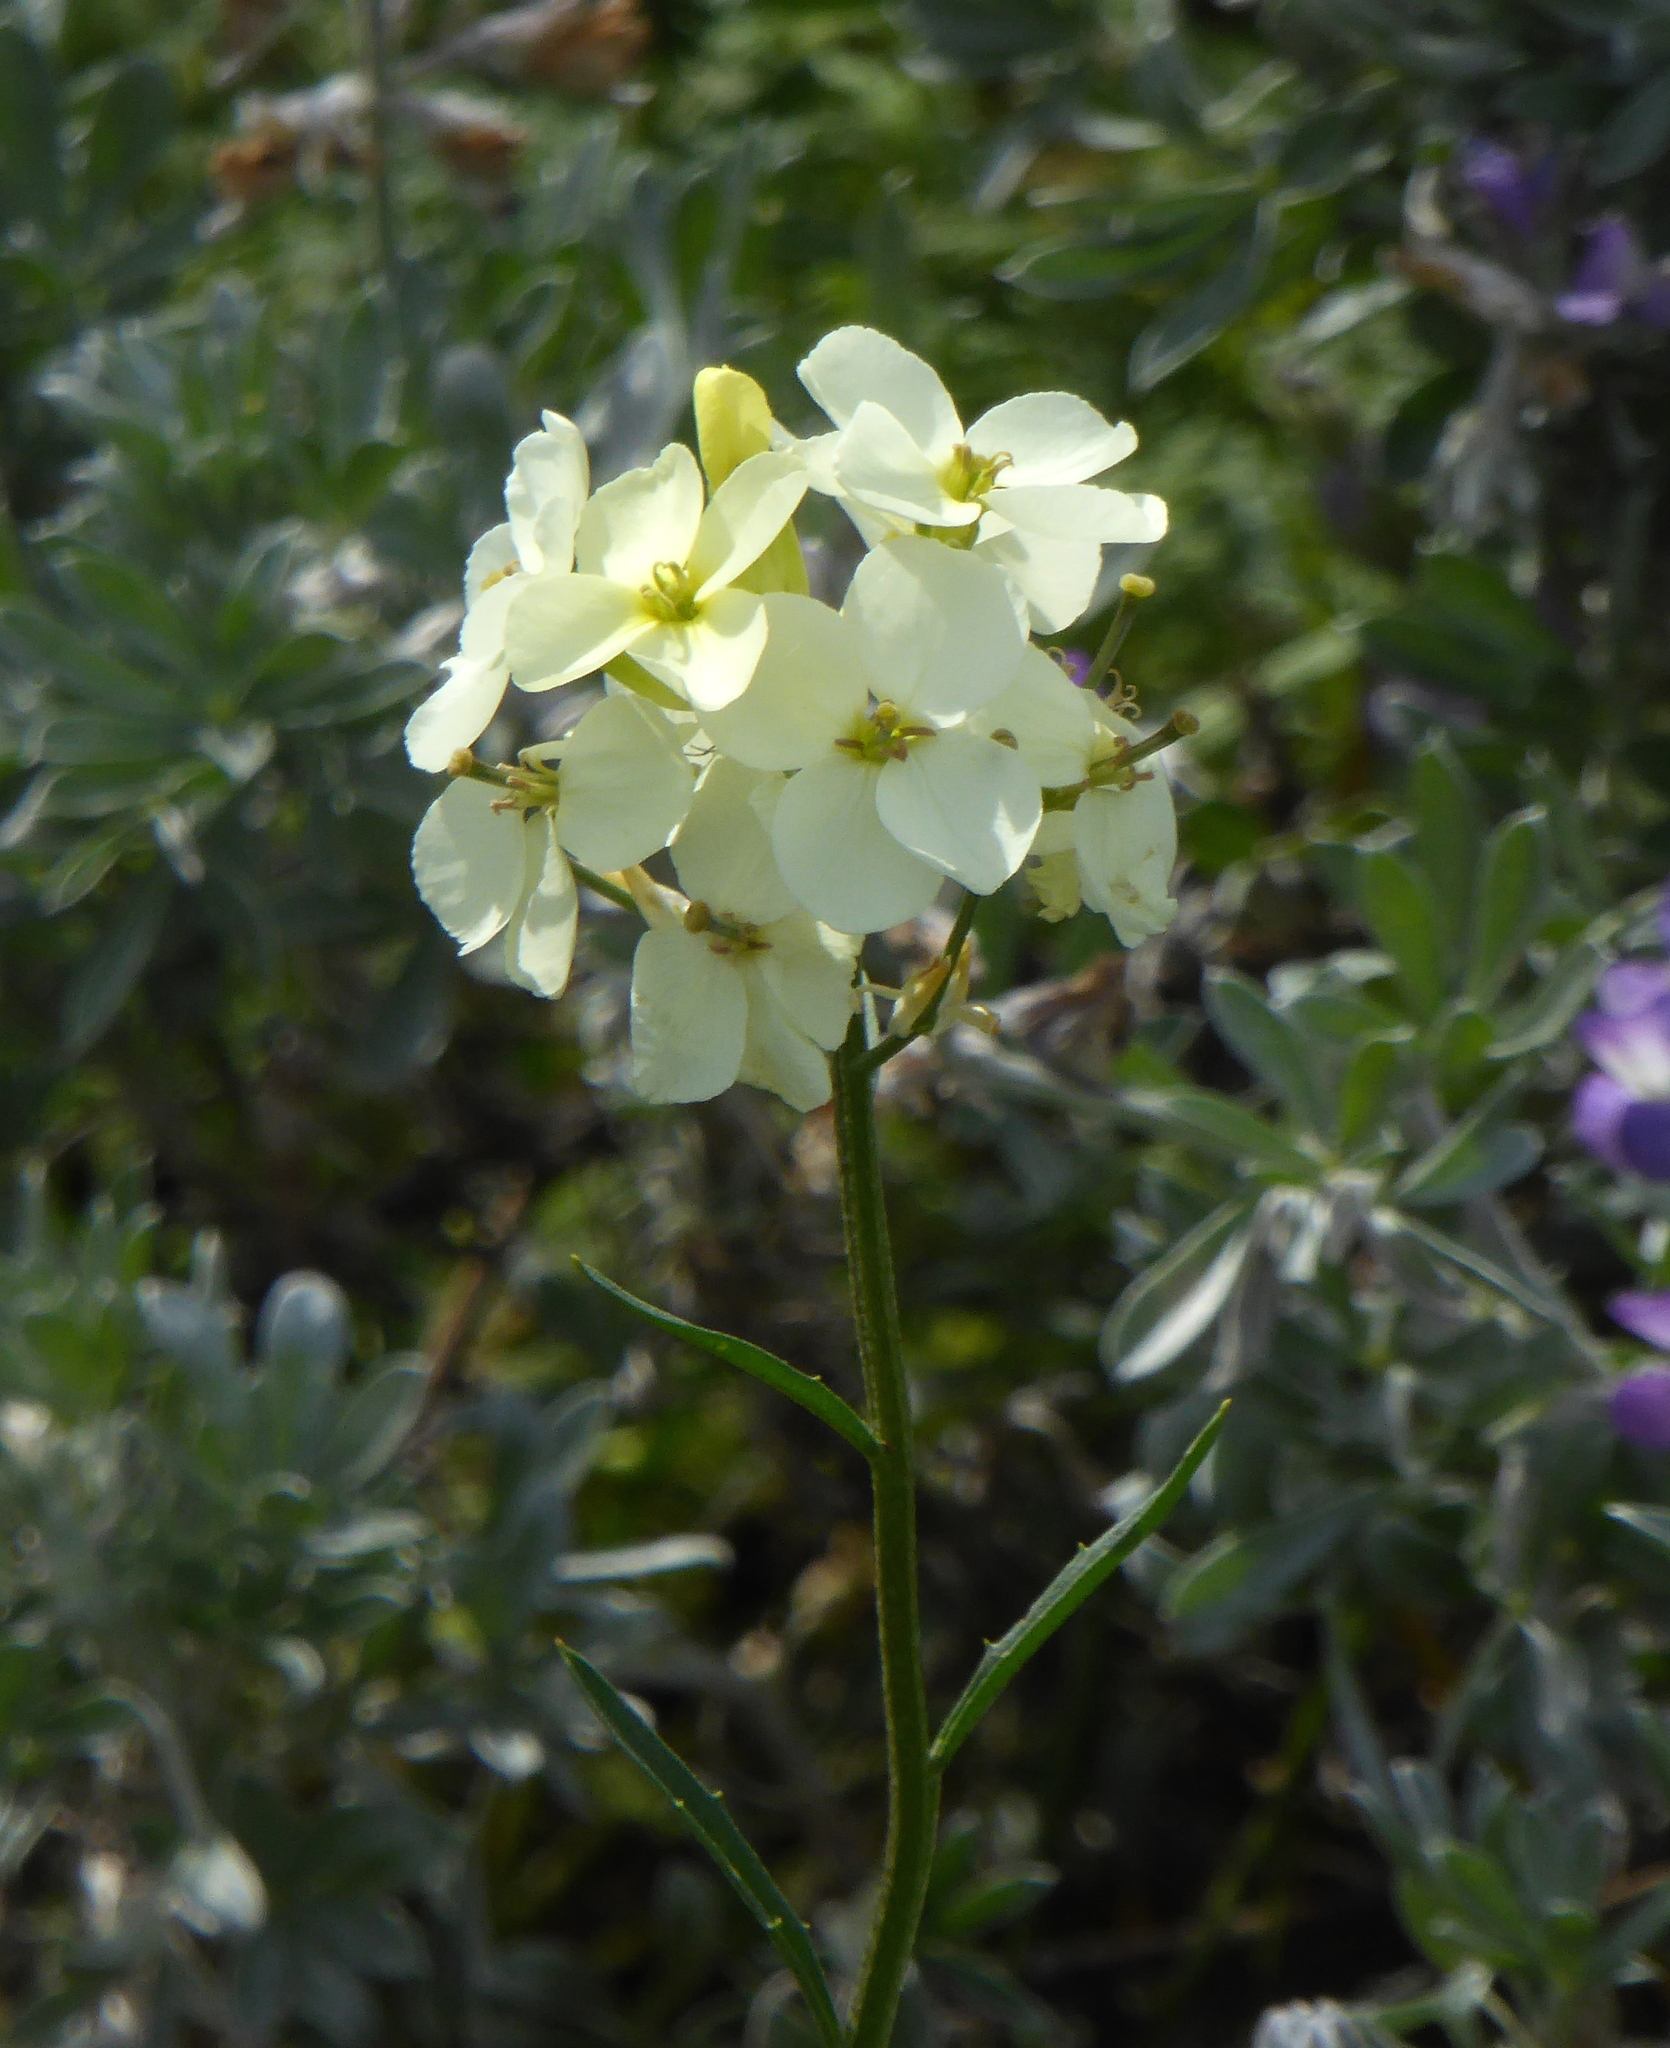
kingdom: Plantae
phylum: Tracheophyta
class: Magnoliopsida
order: Brassicales
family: Brassicaceae
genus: Erysimum
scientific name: Erysimum franciscanum
